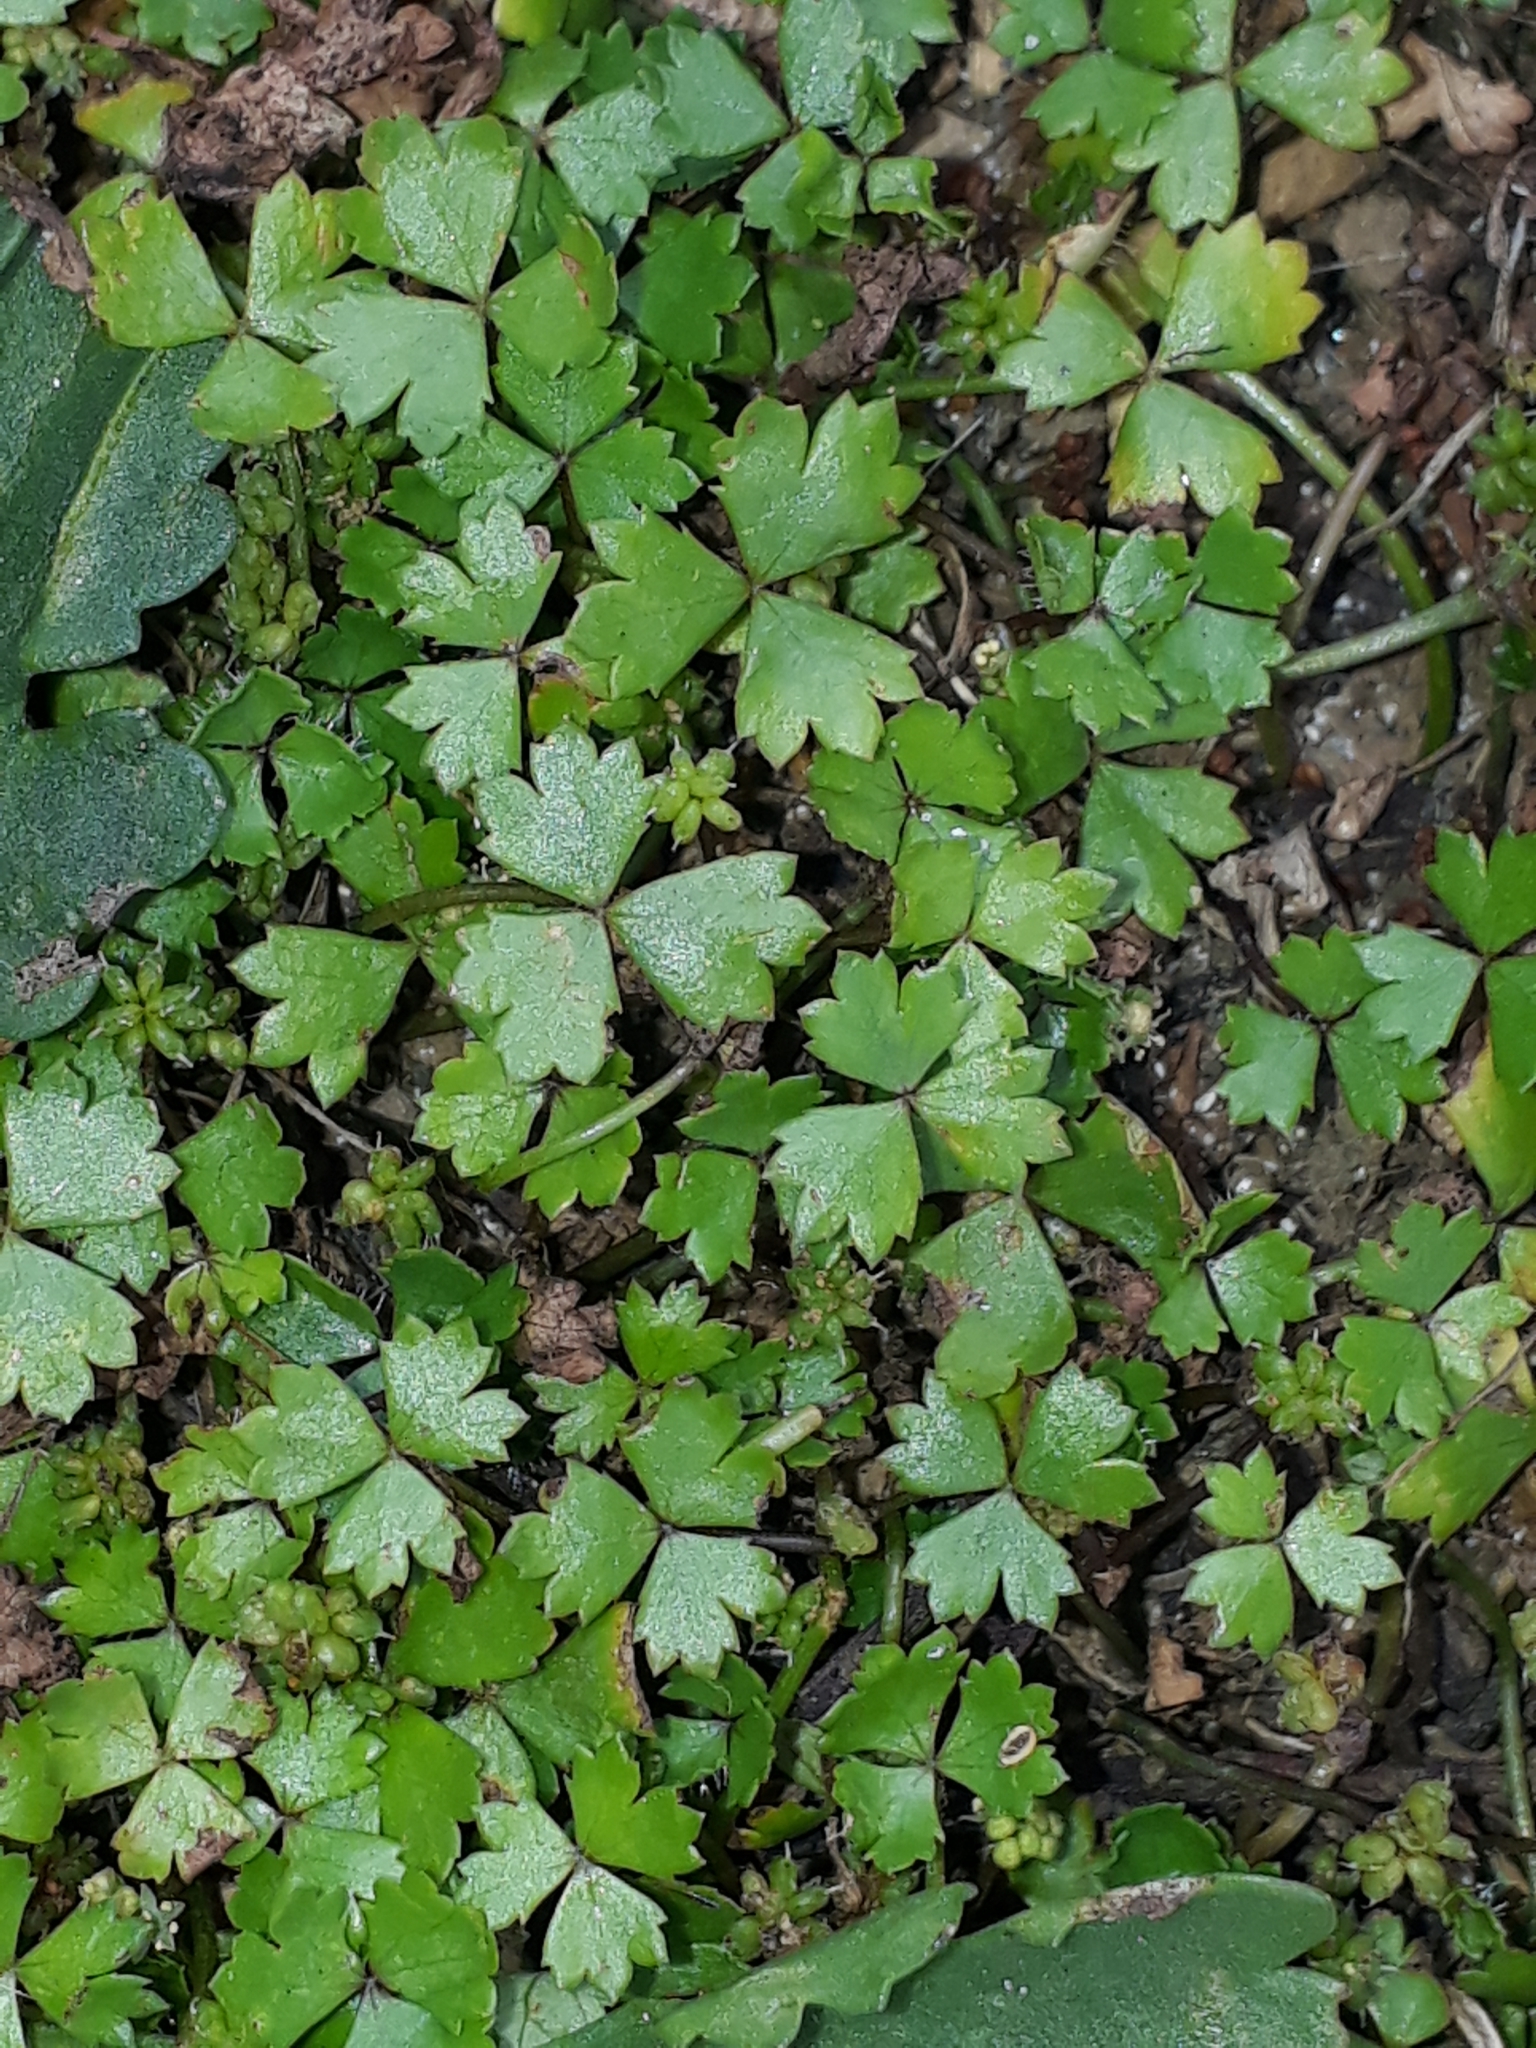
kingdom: Plantae
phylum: Tracheophyta
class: Magnoliopsida
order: Apiales
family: Araliaceae
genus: Hydrocotyle
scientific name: Hydrocotyle tripartita
